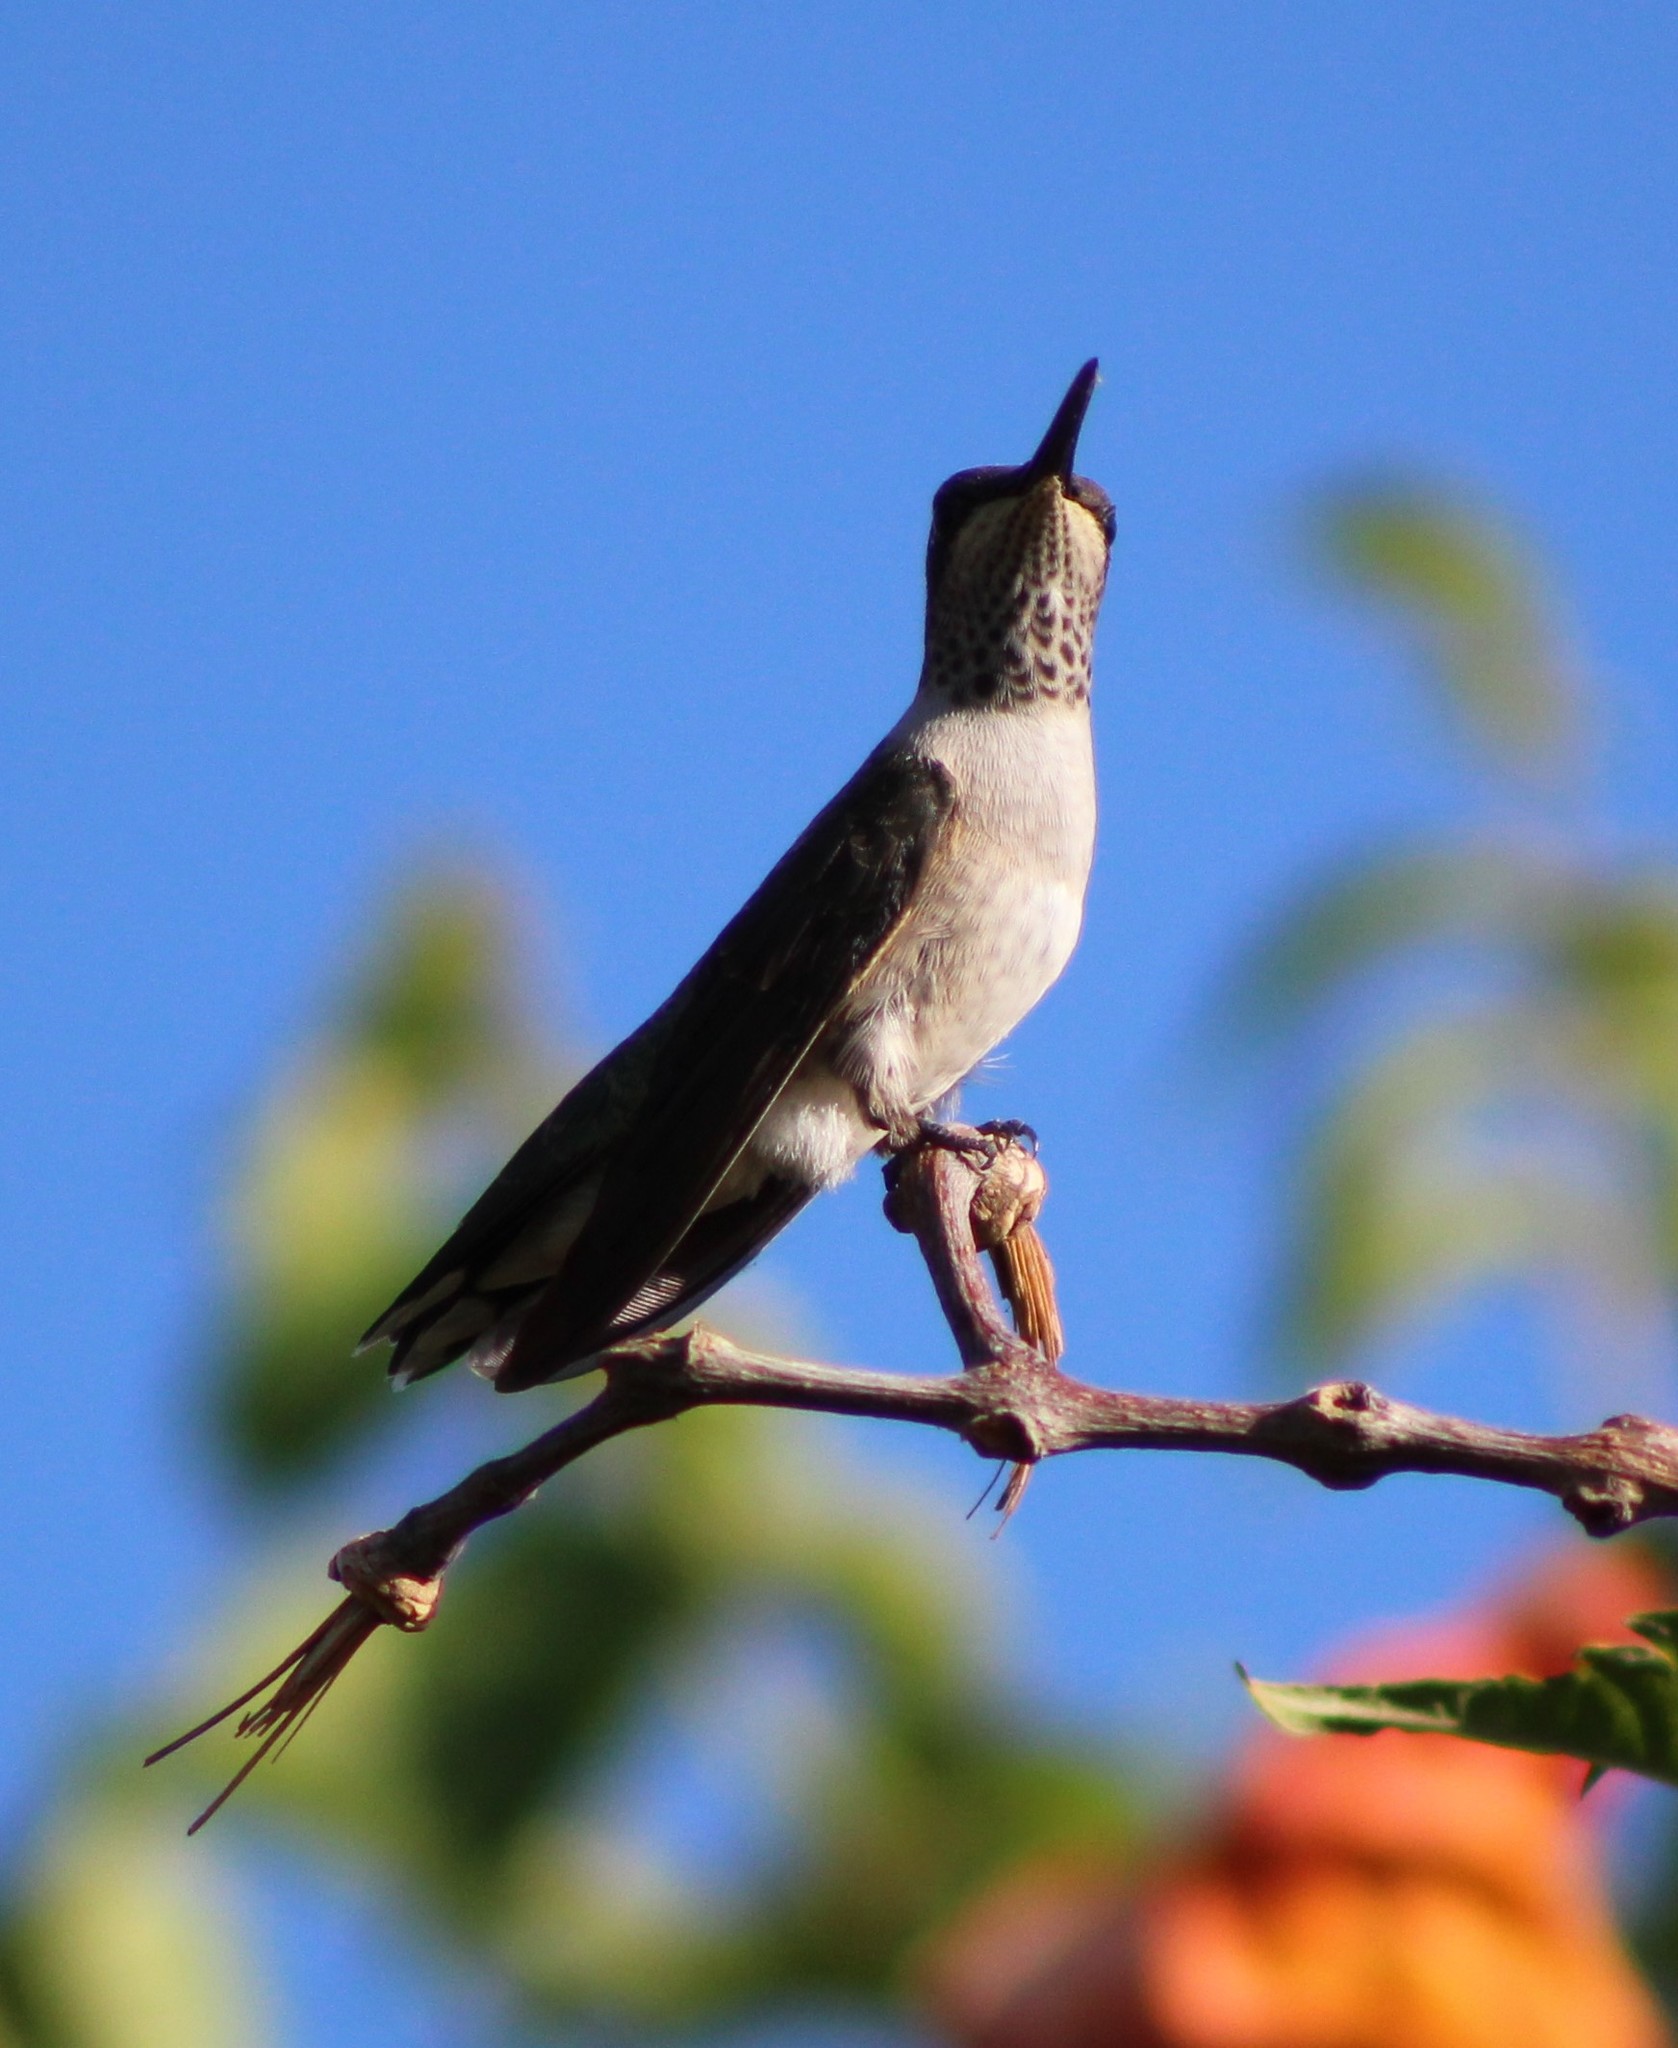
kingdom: Animalia
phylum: Chordata
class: Aves
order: Apodiformes
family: Trochilidae
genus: Archilochus
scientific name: Archilochus alexandri
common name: Black-chinned hummingbird
